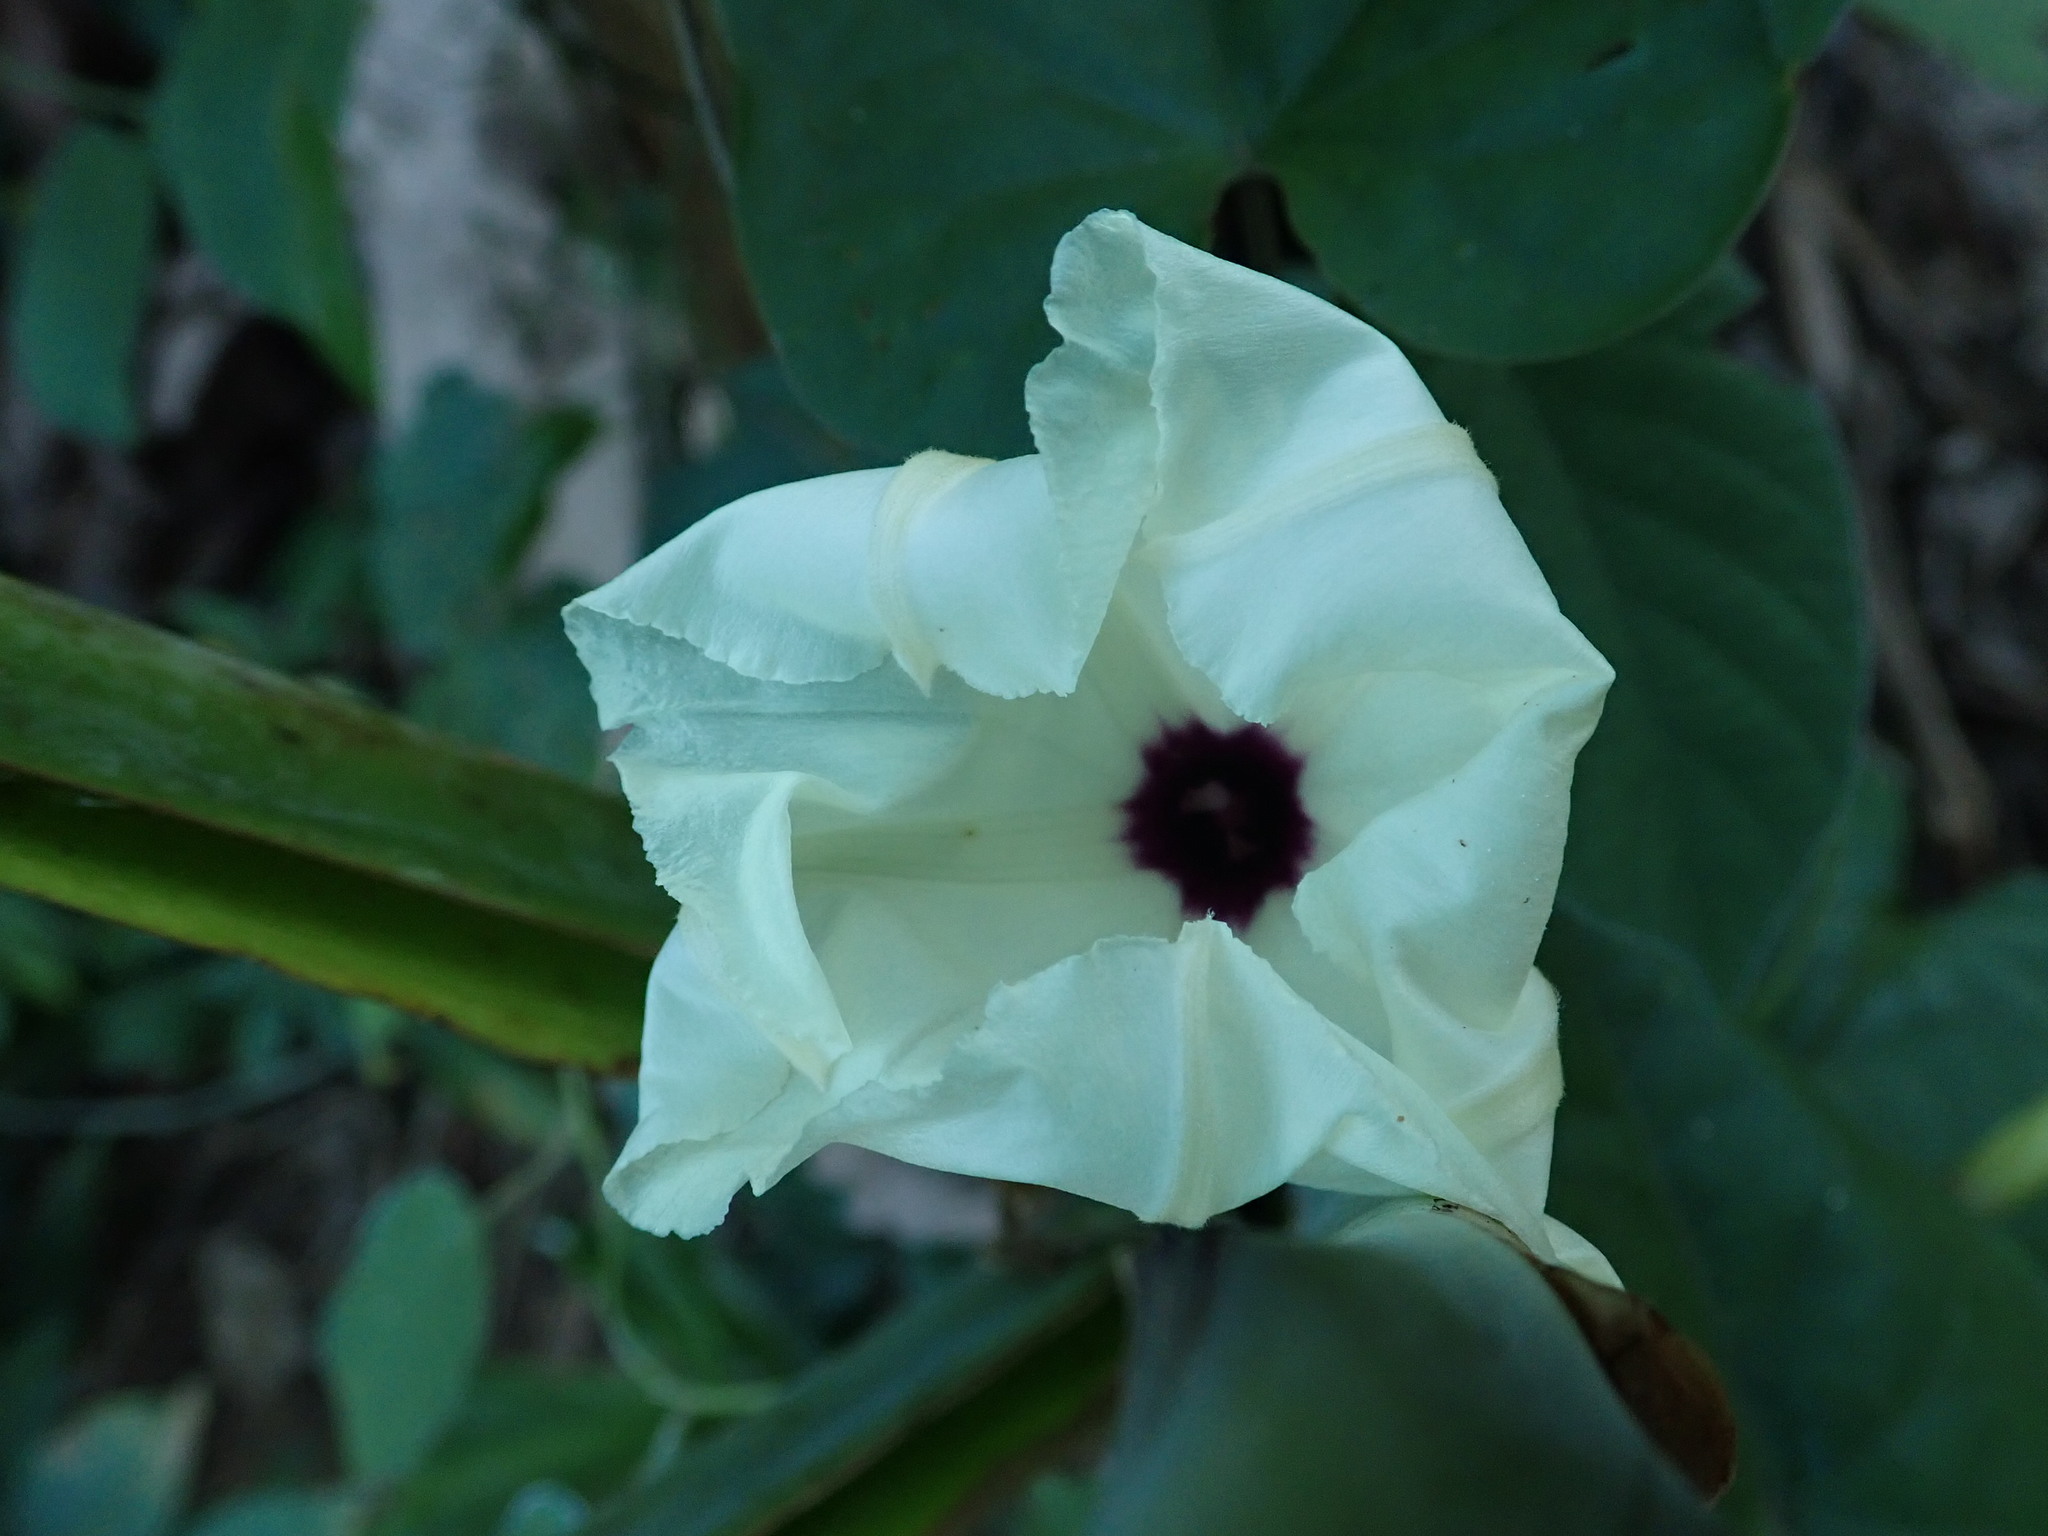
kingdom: Plantae
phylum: Tracheophyta
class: Magnoliopsida
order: Solanales
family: Convolvulaceae
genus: Ipomoea
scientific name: Ipomoea cambodiensis
